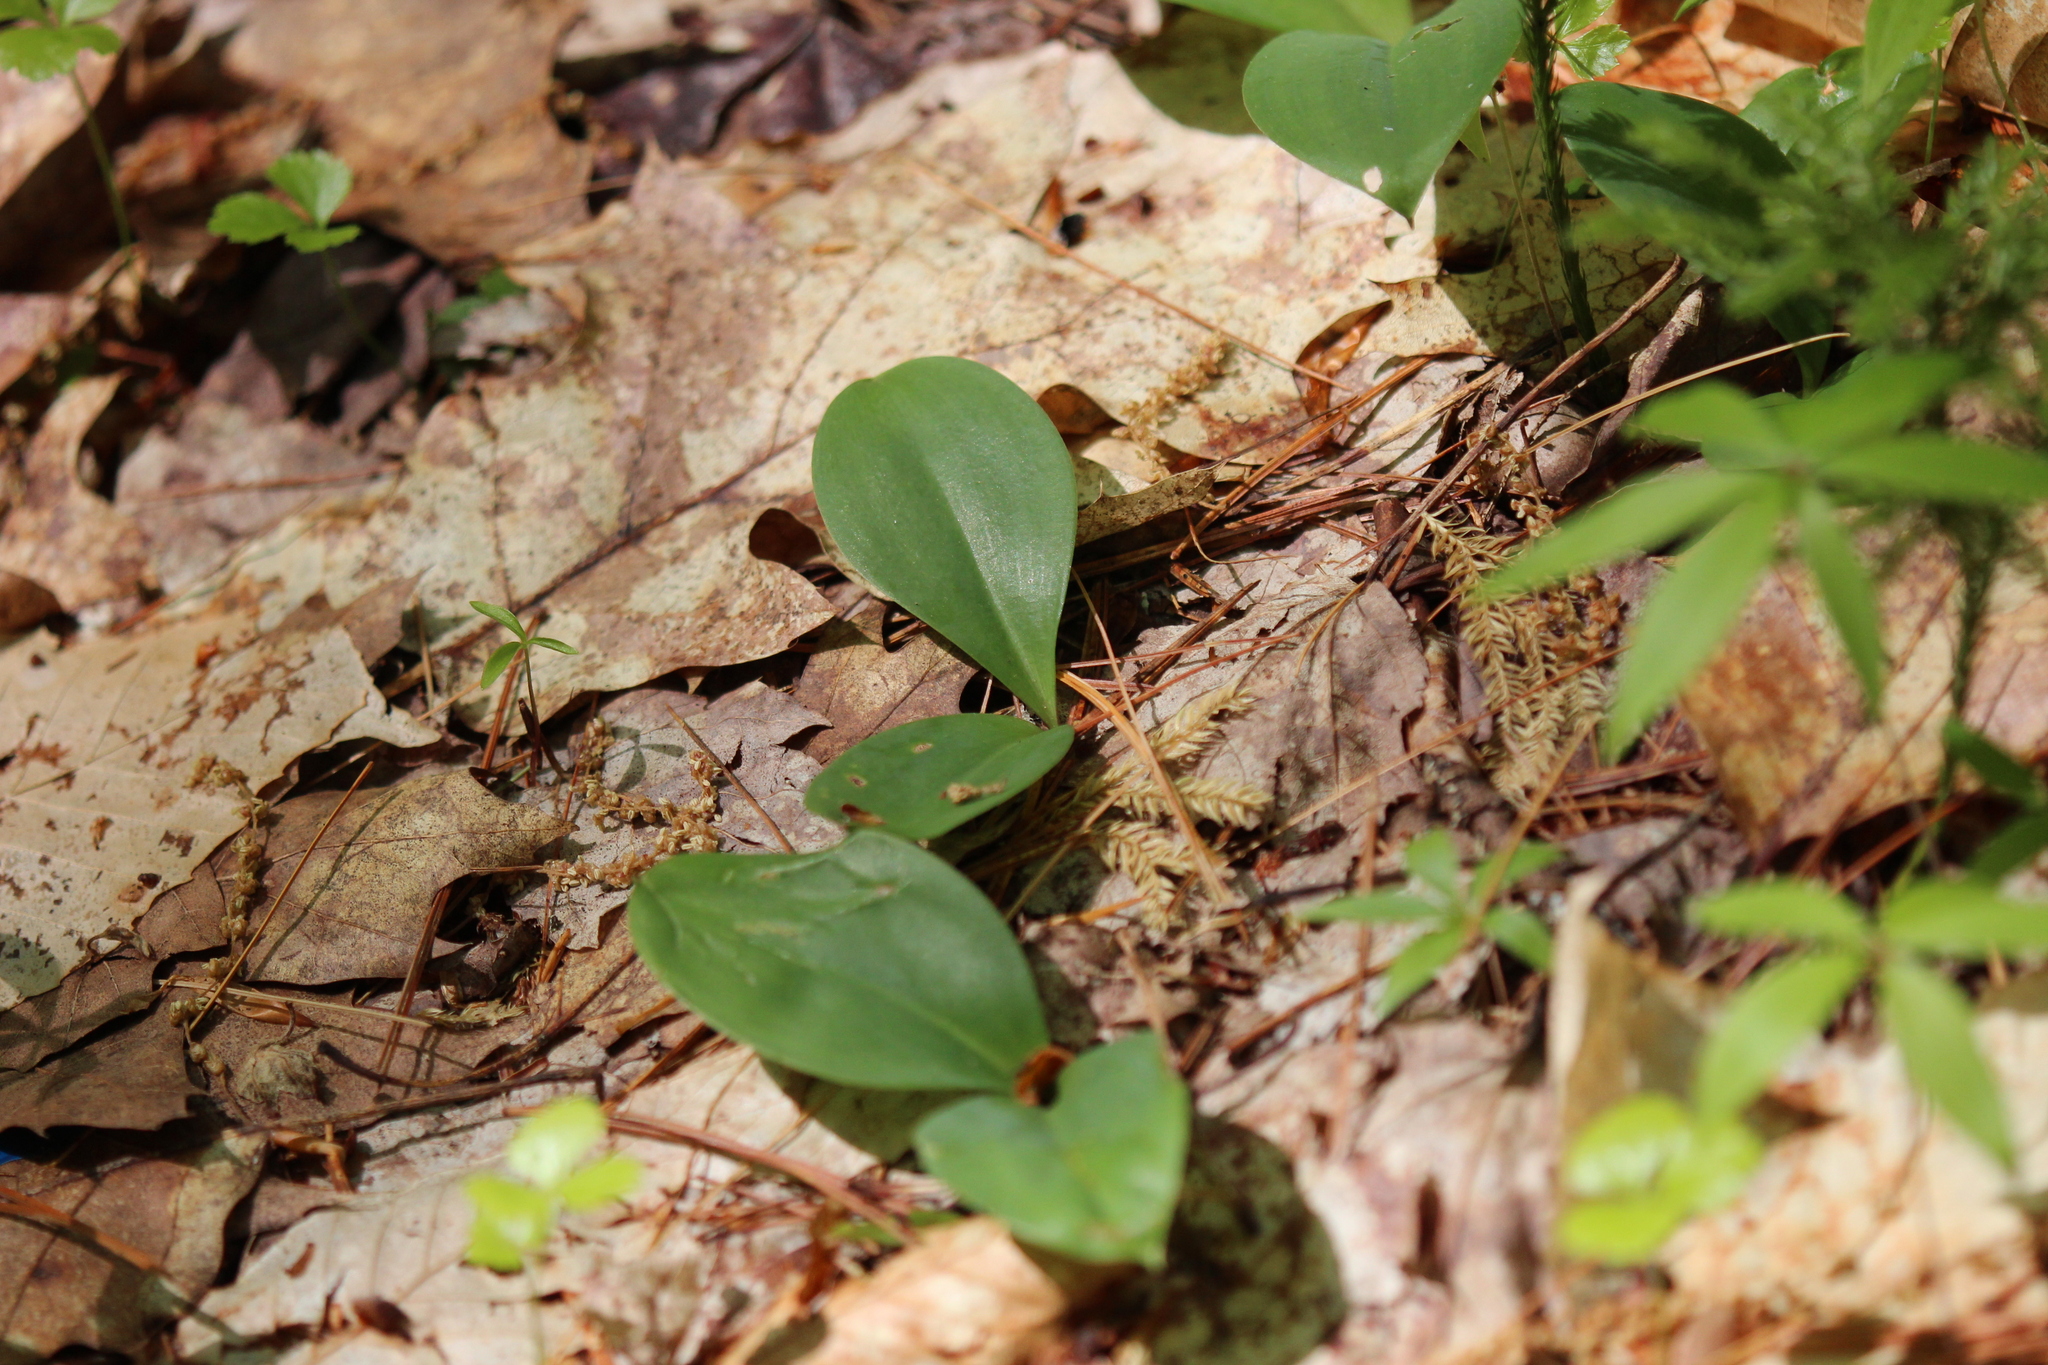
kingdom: Plantae
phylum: Tracheophyta
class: Liliopsida
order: Liliales
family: Liliaceae
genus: Clintonia
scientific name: Clintonia borealis
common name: Yellow clintonia
